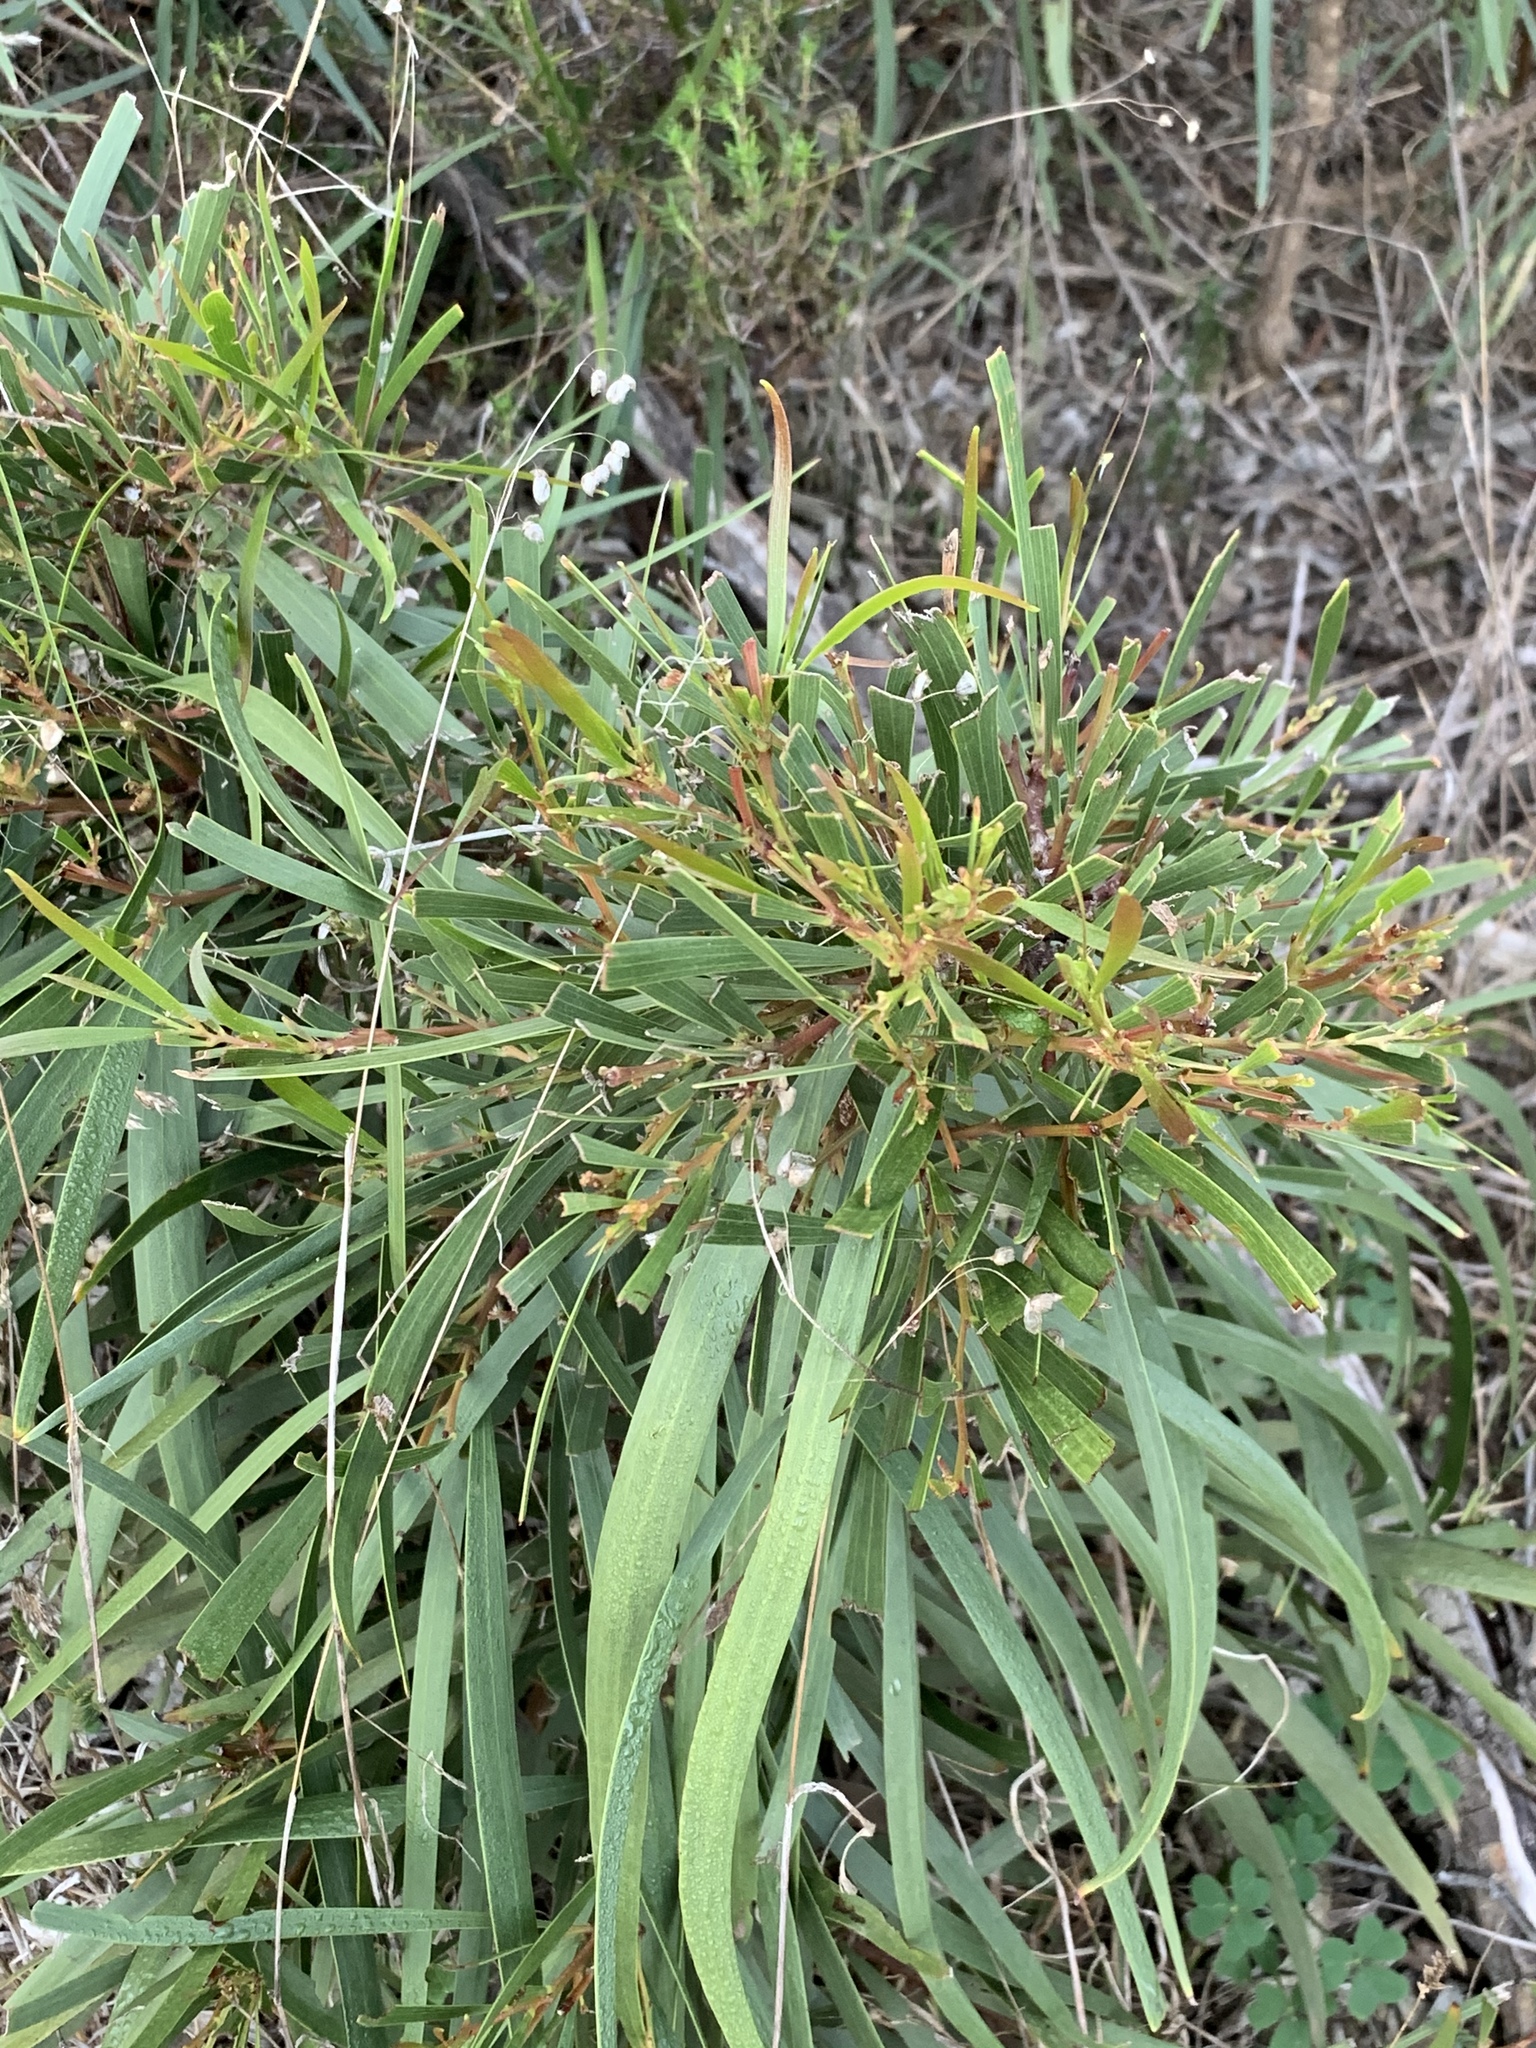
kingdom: Plantae
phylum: Tracheophyta
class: Magnoliopsida
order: Fabales
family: Fabaceae
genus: Acacia
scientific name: Acacia implexa
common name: Black wattle
